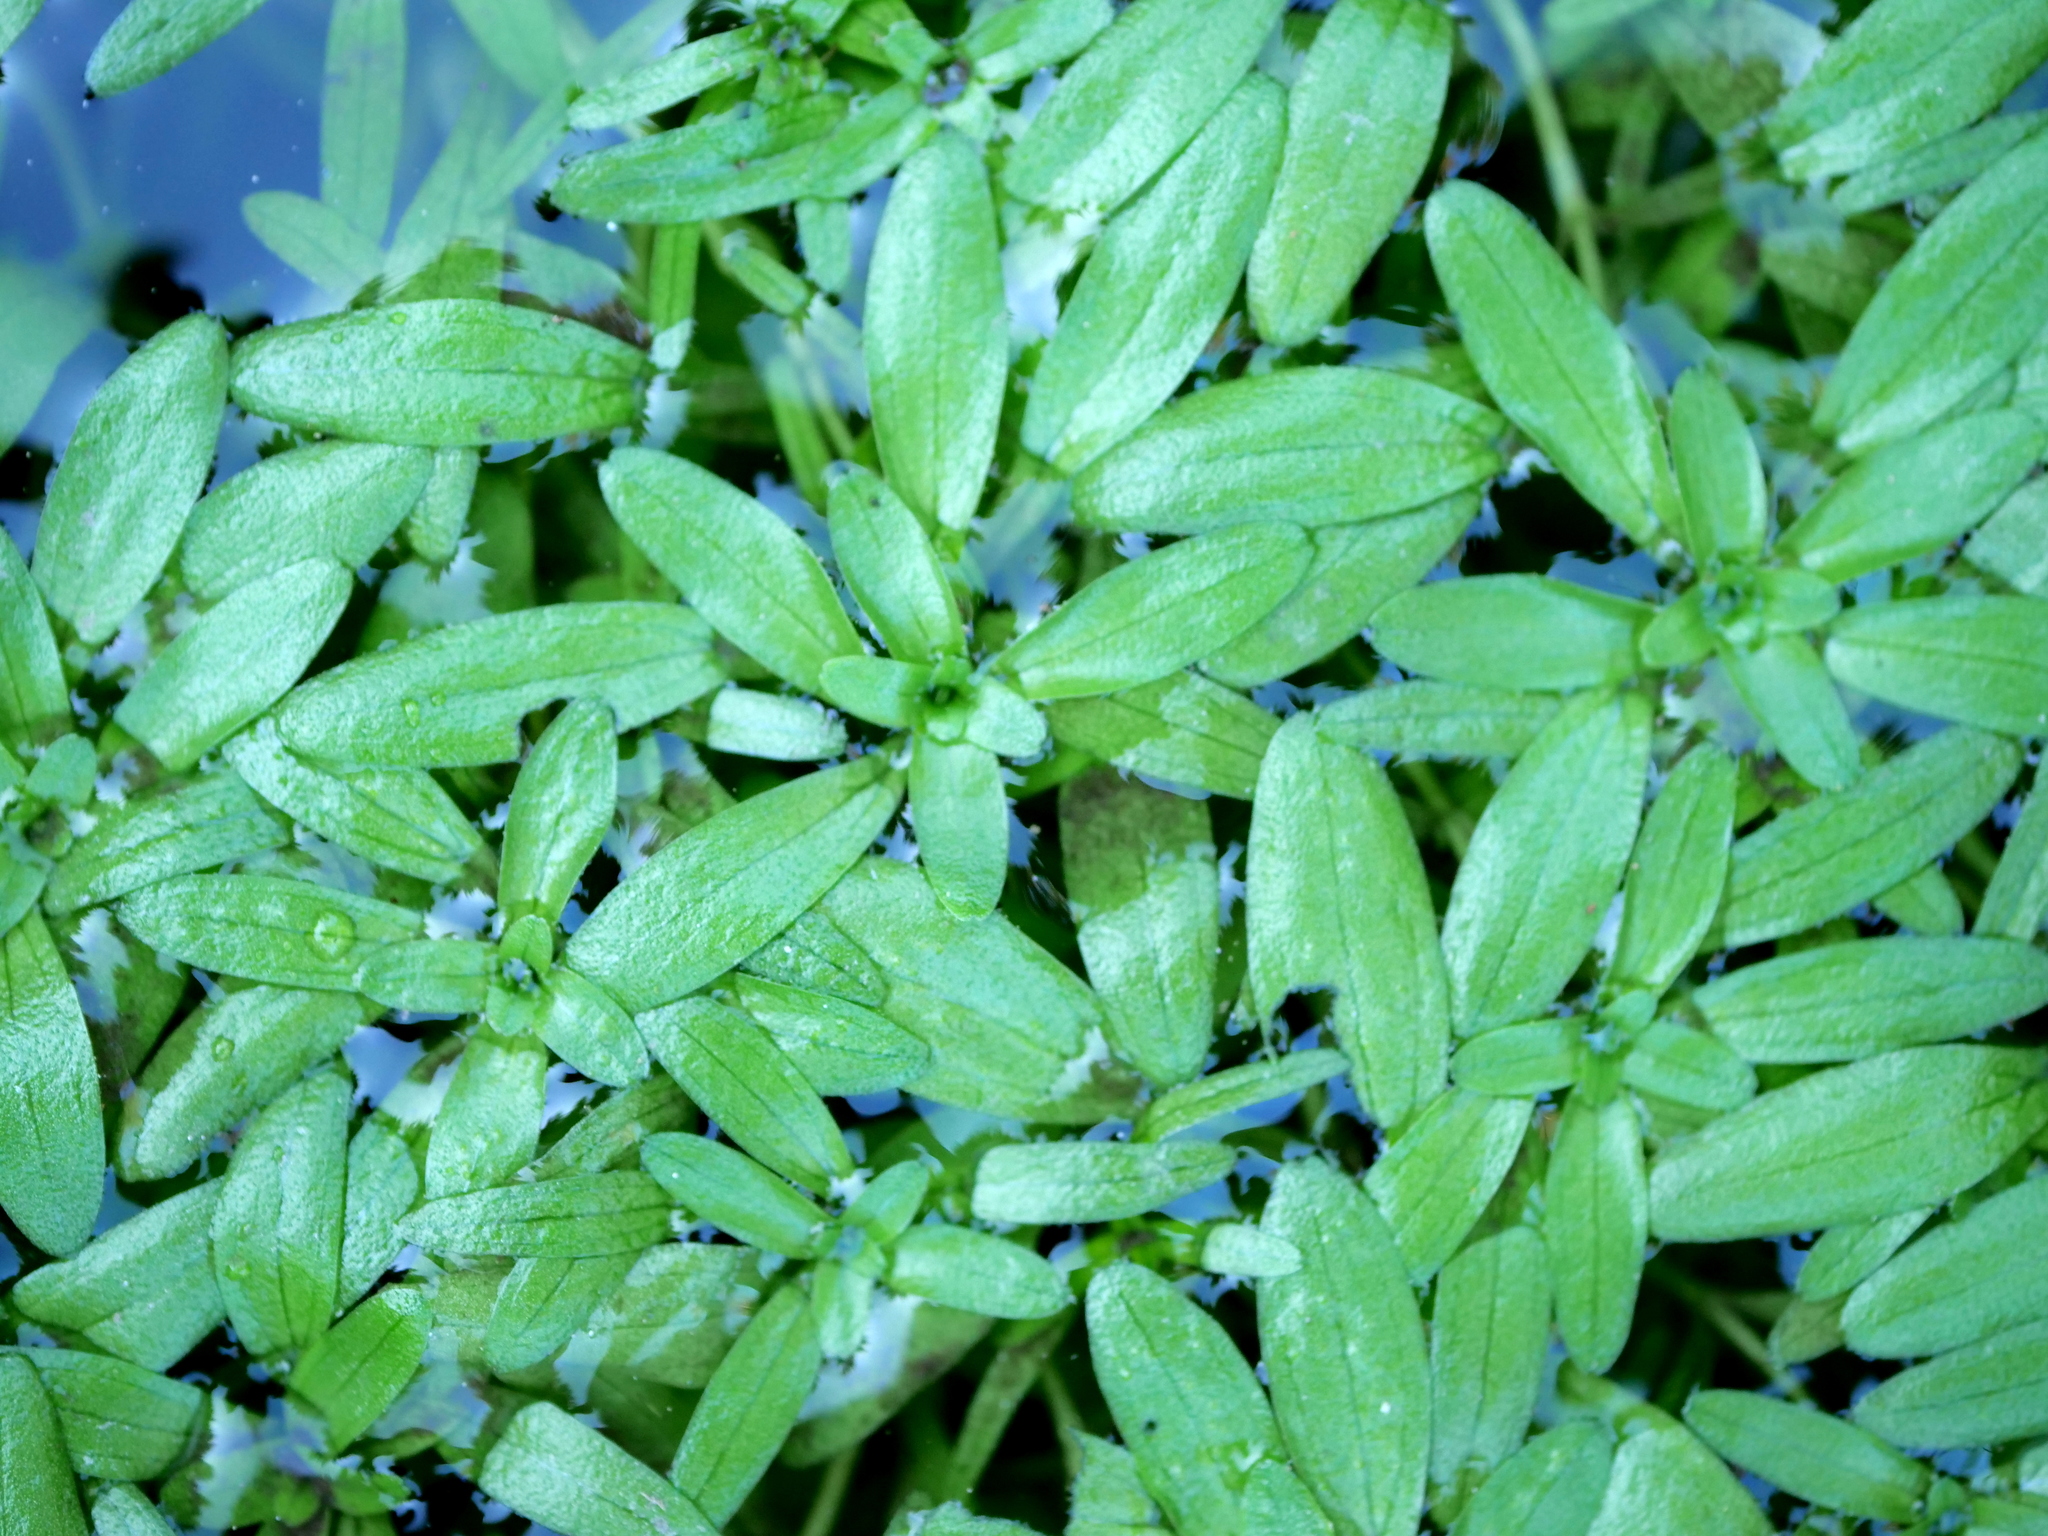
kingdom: Plantae
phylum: Tracheophyta
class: Magnoliopsida
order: Lamiales
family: Plantaginaceae
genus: Callitriche
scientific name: Callitriche
